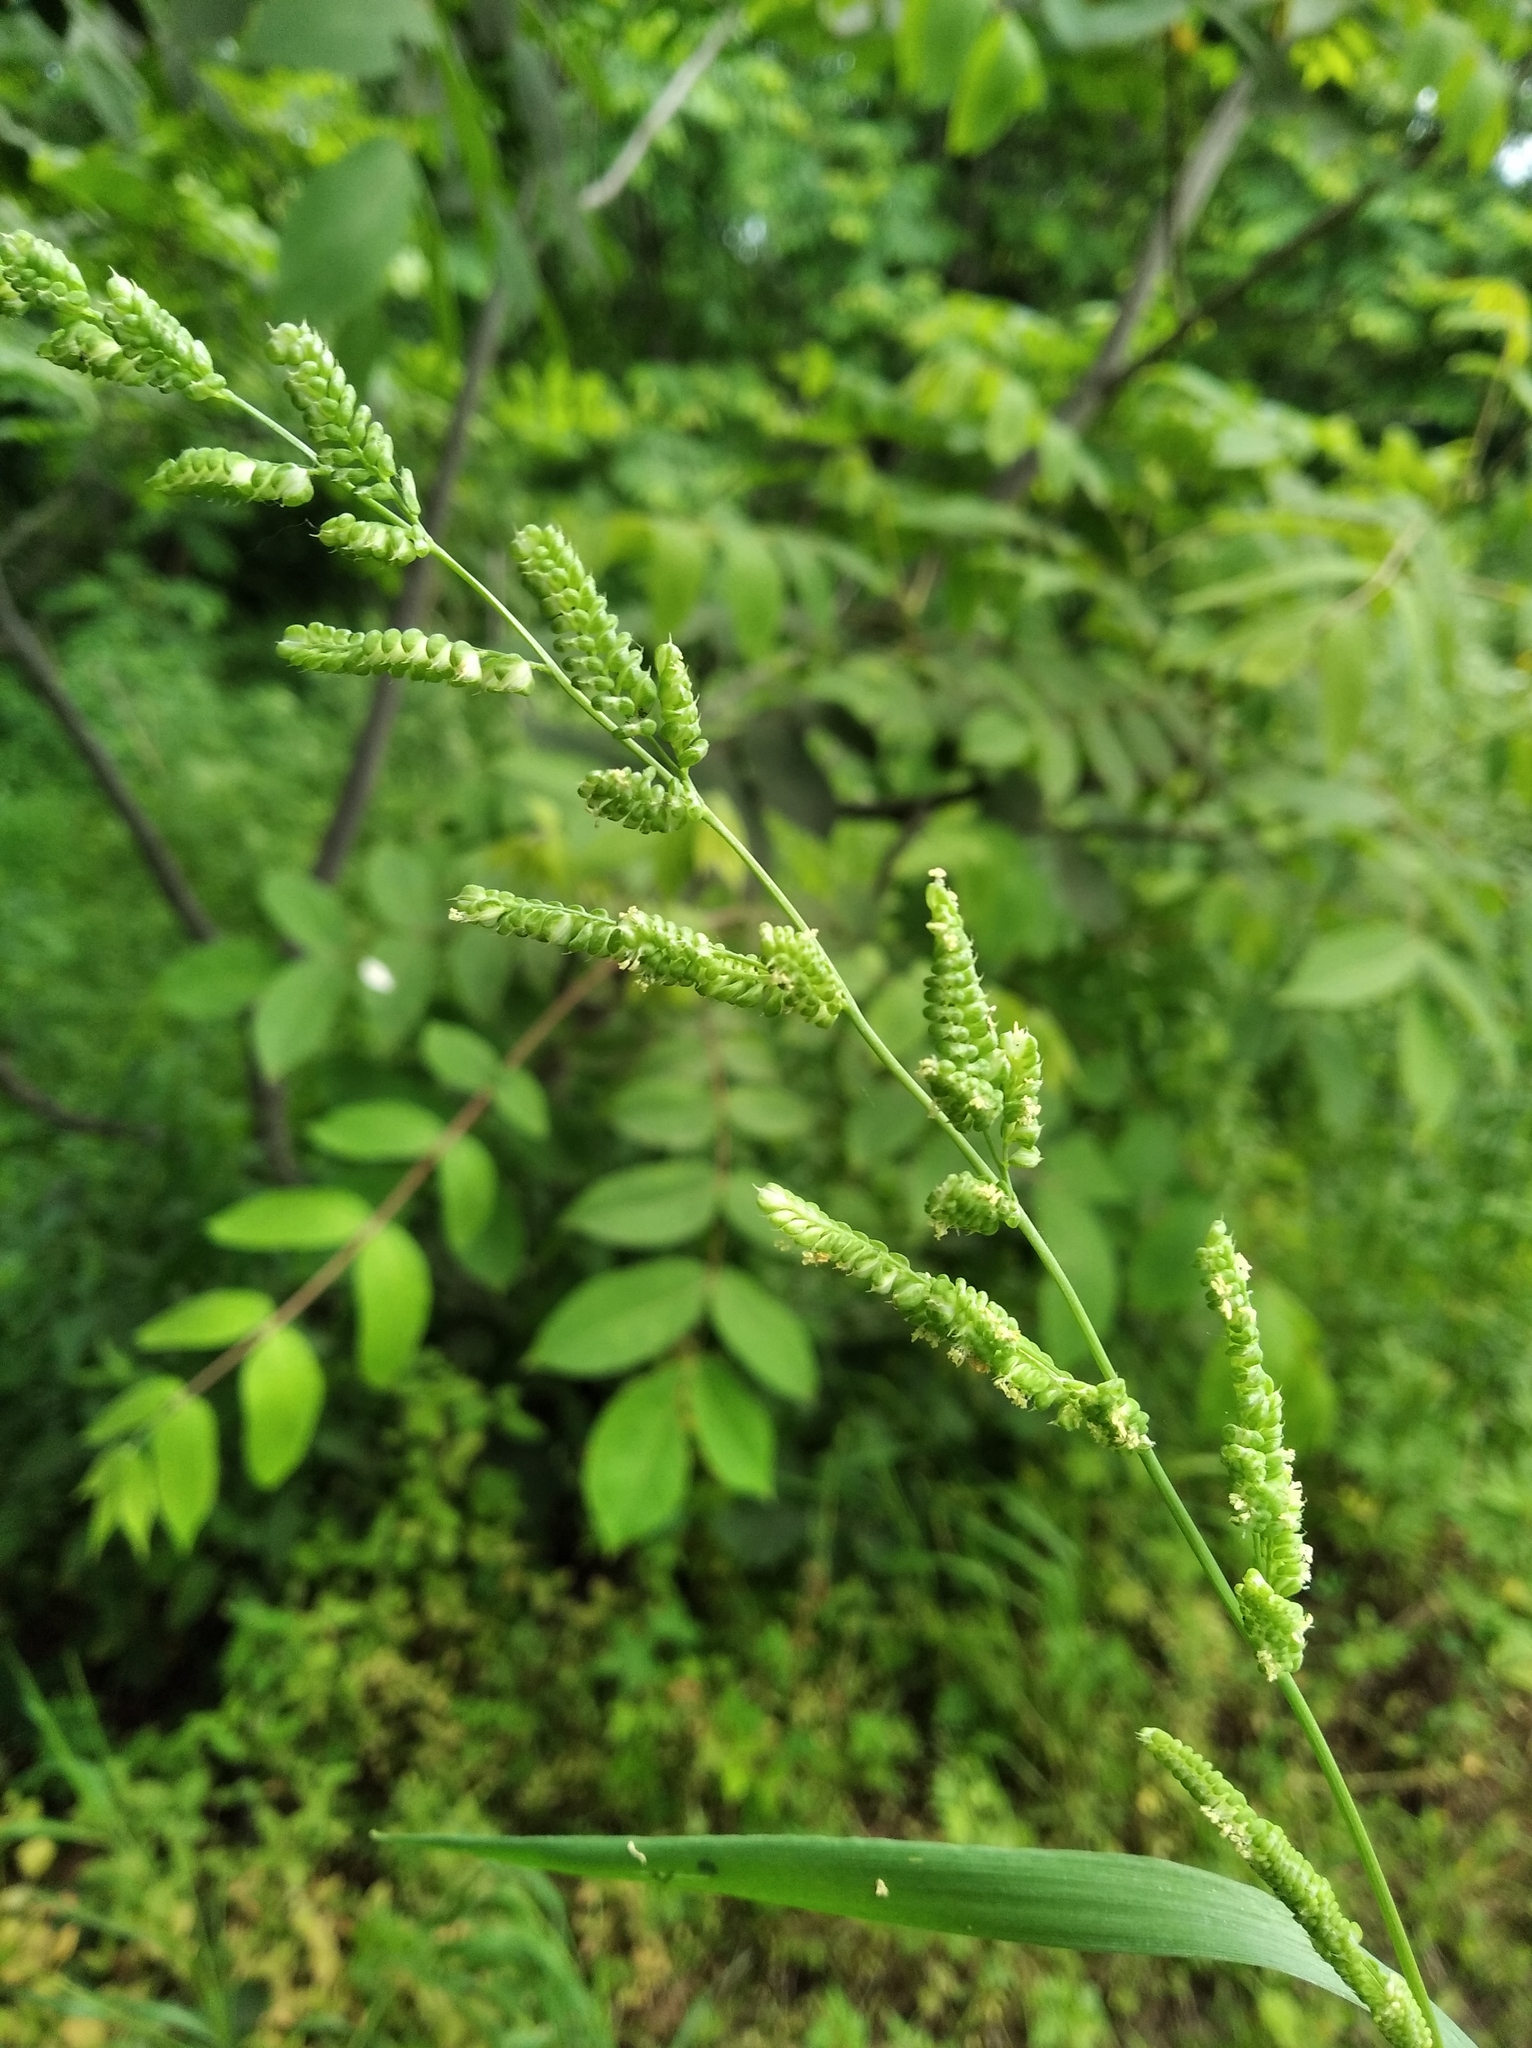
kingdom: Plantae
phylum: Tracheophyta
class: Liliopsida
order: Poales
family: Poaceae
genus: Beckmannia
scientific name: Beckmannia syzigachne
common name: American slough-grass
